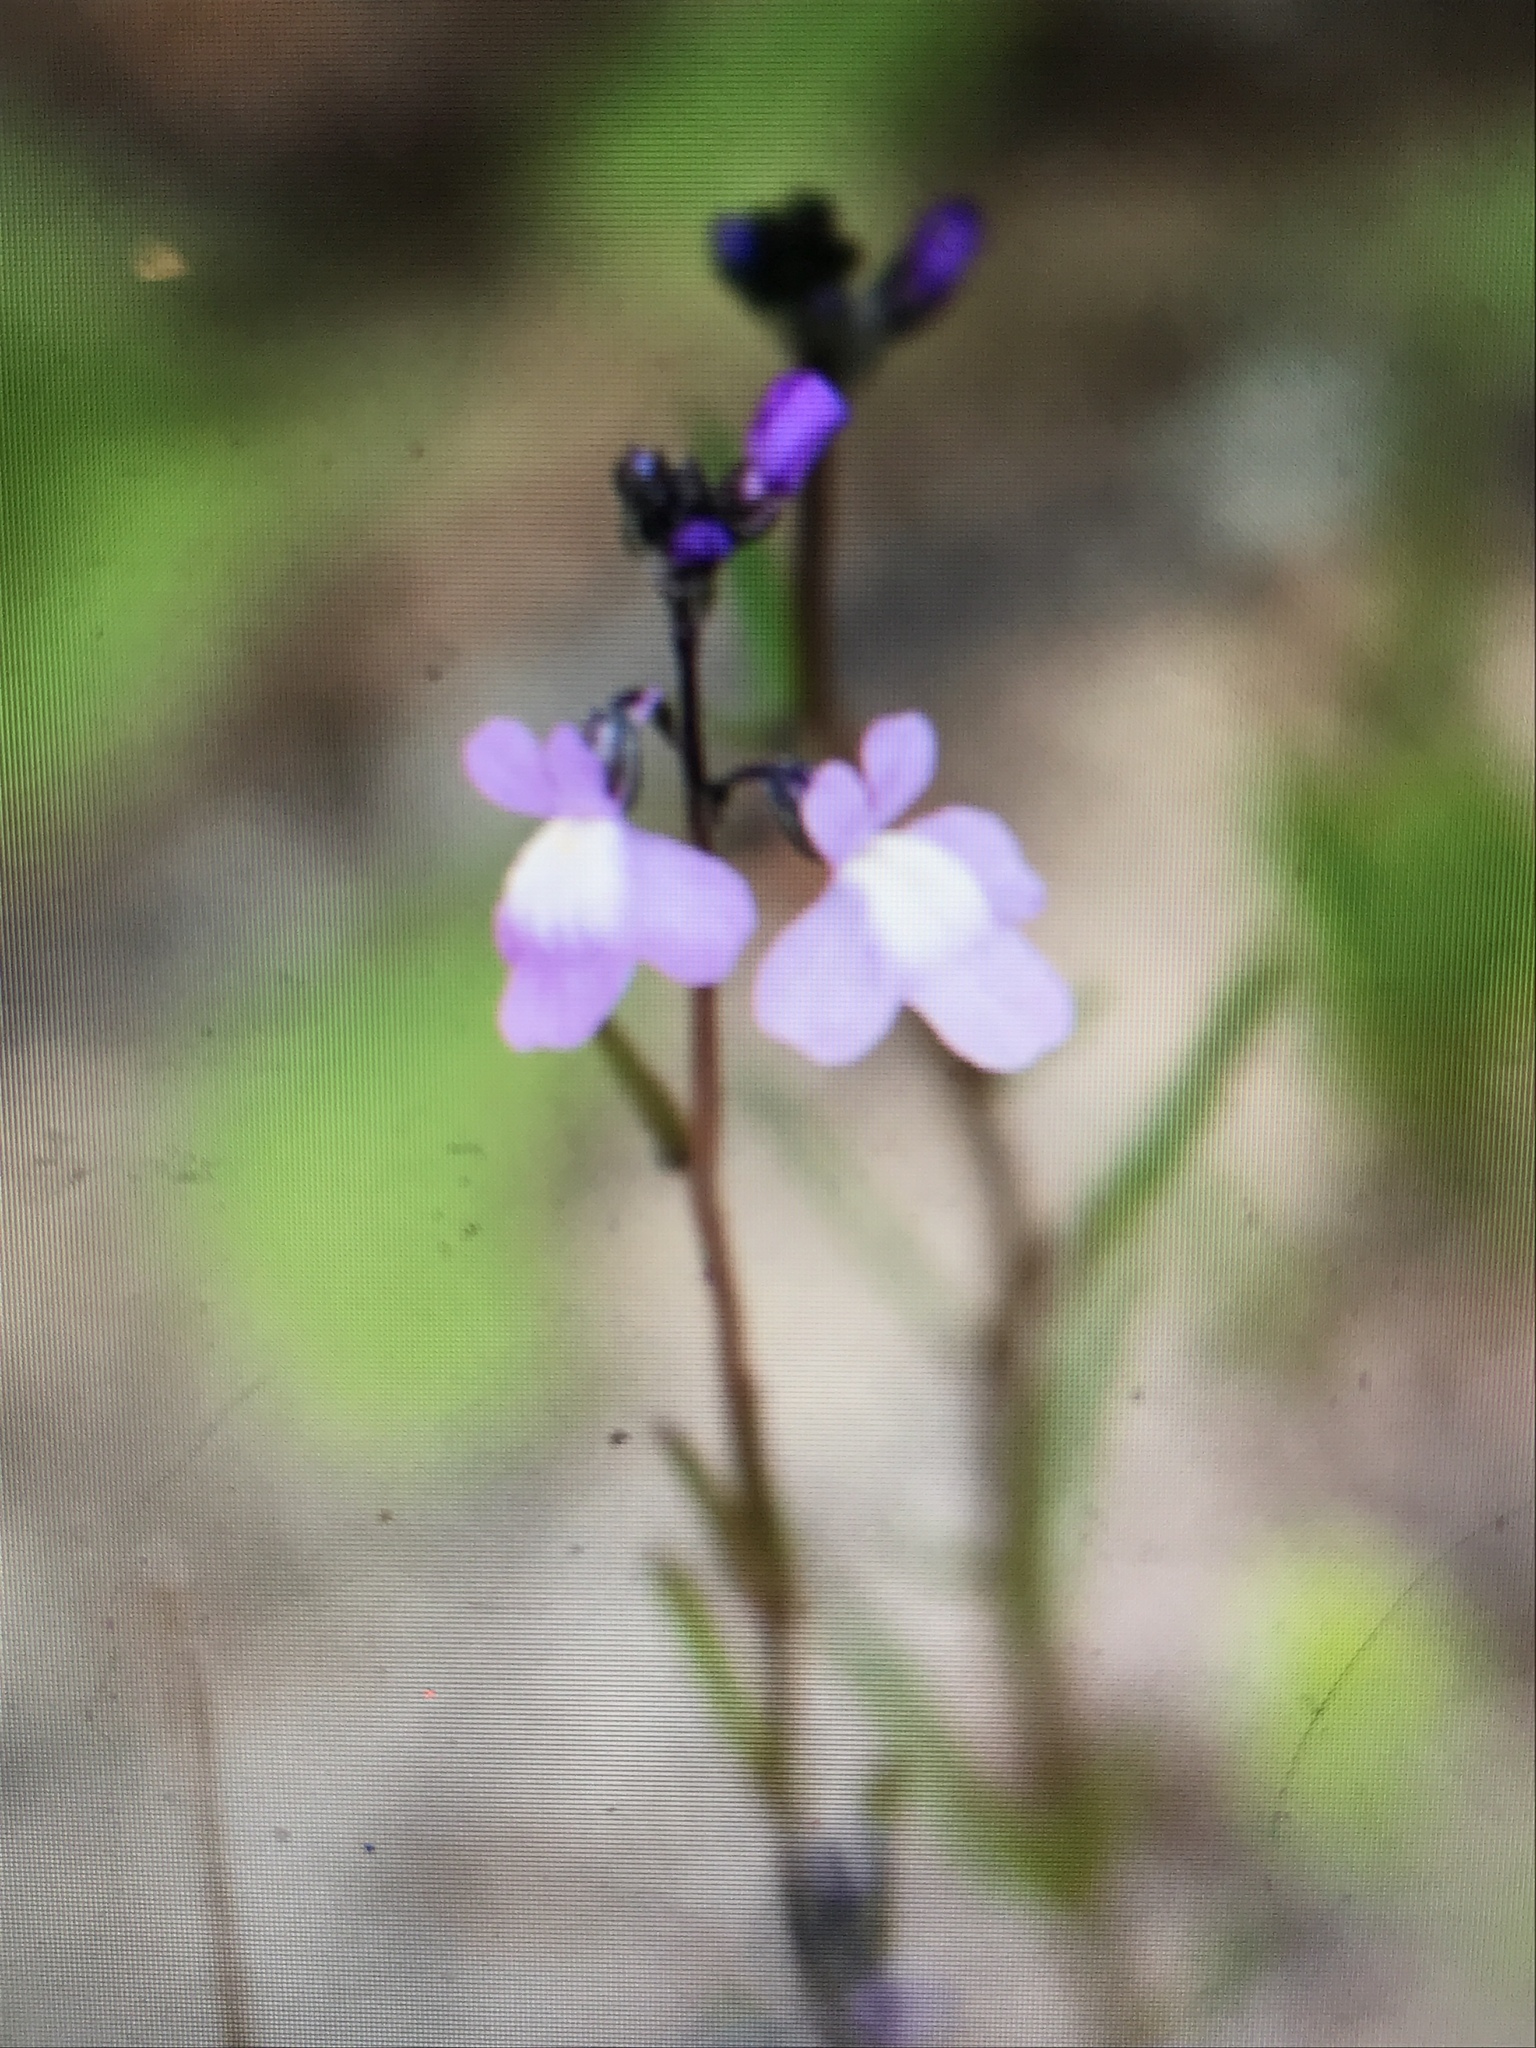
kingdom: Plantae
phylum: Tracheophyta
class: Magnoliopsida
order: Lamiales
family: Plantaginaceae
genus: Nuttallanthus
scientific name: Nuttallanthus canadensis
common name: Blue toadflax
